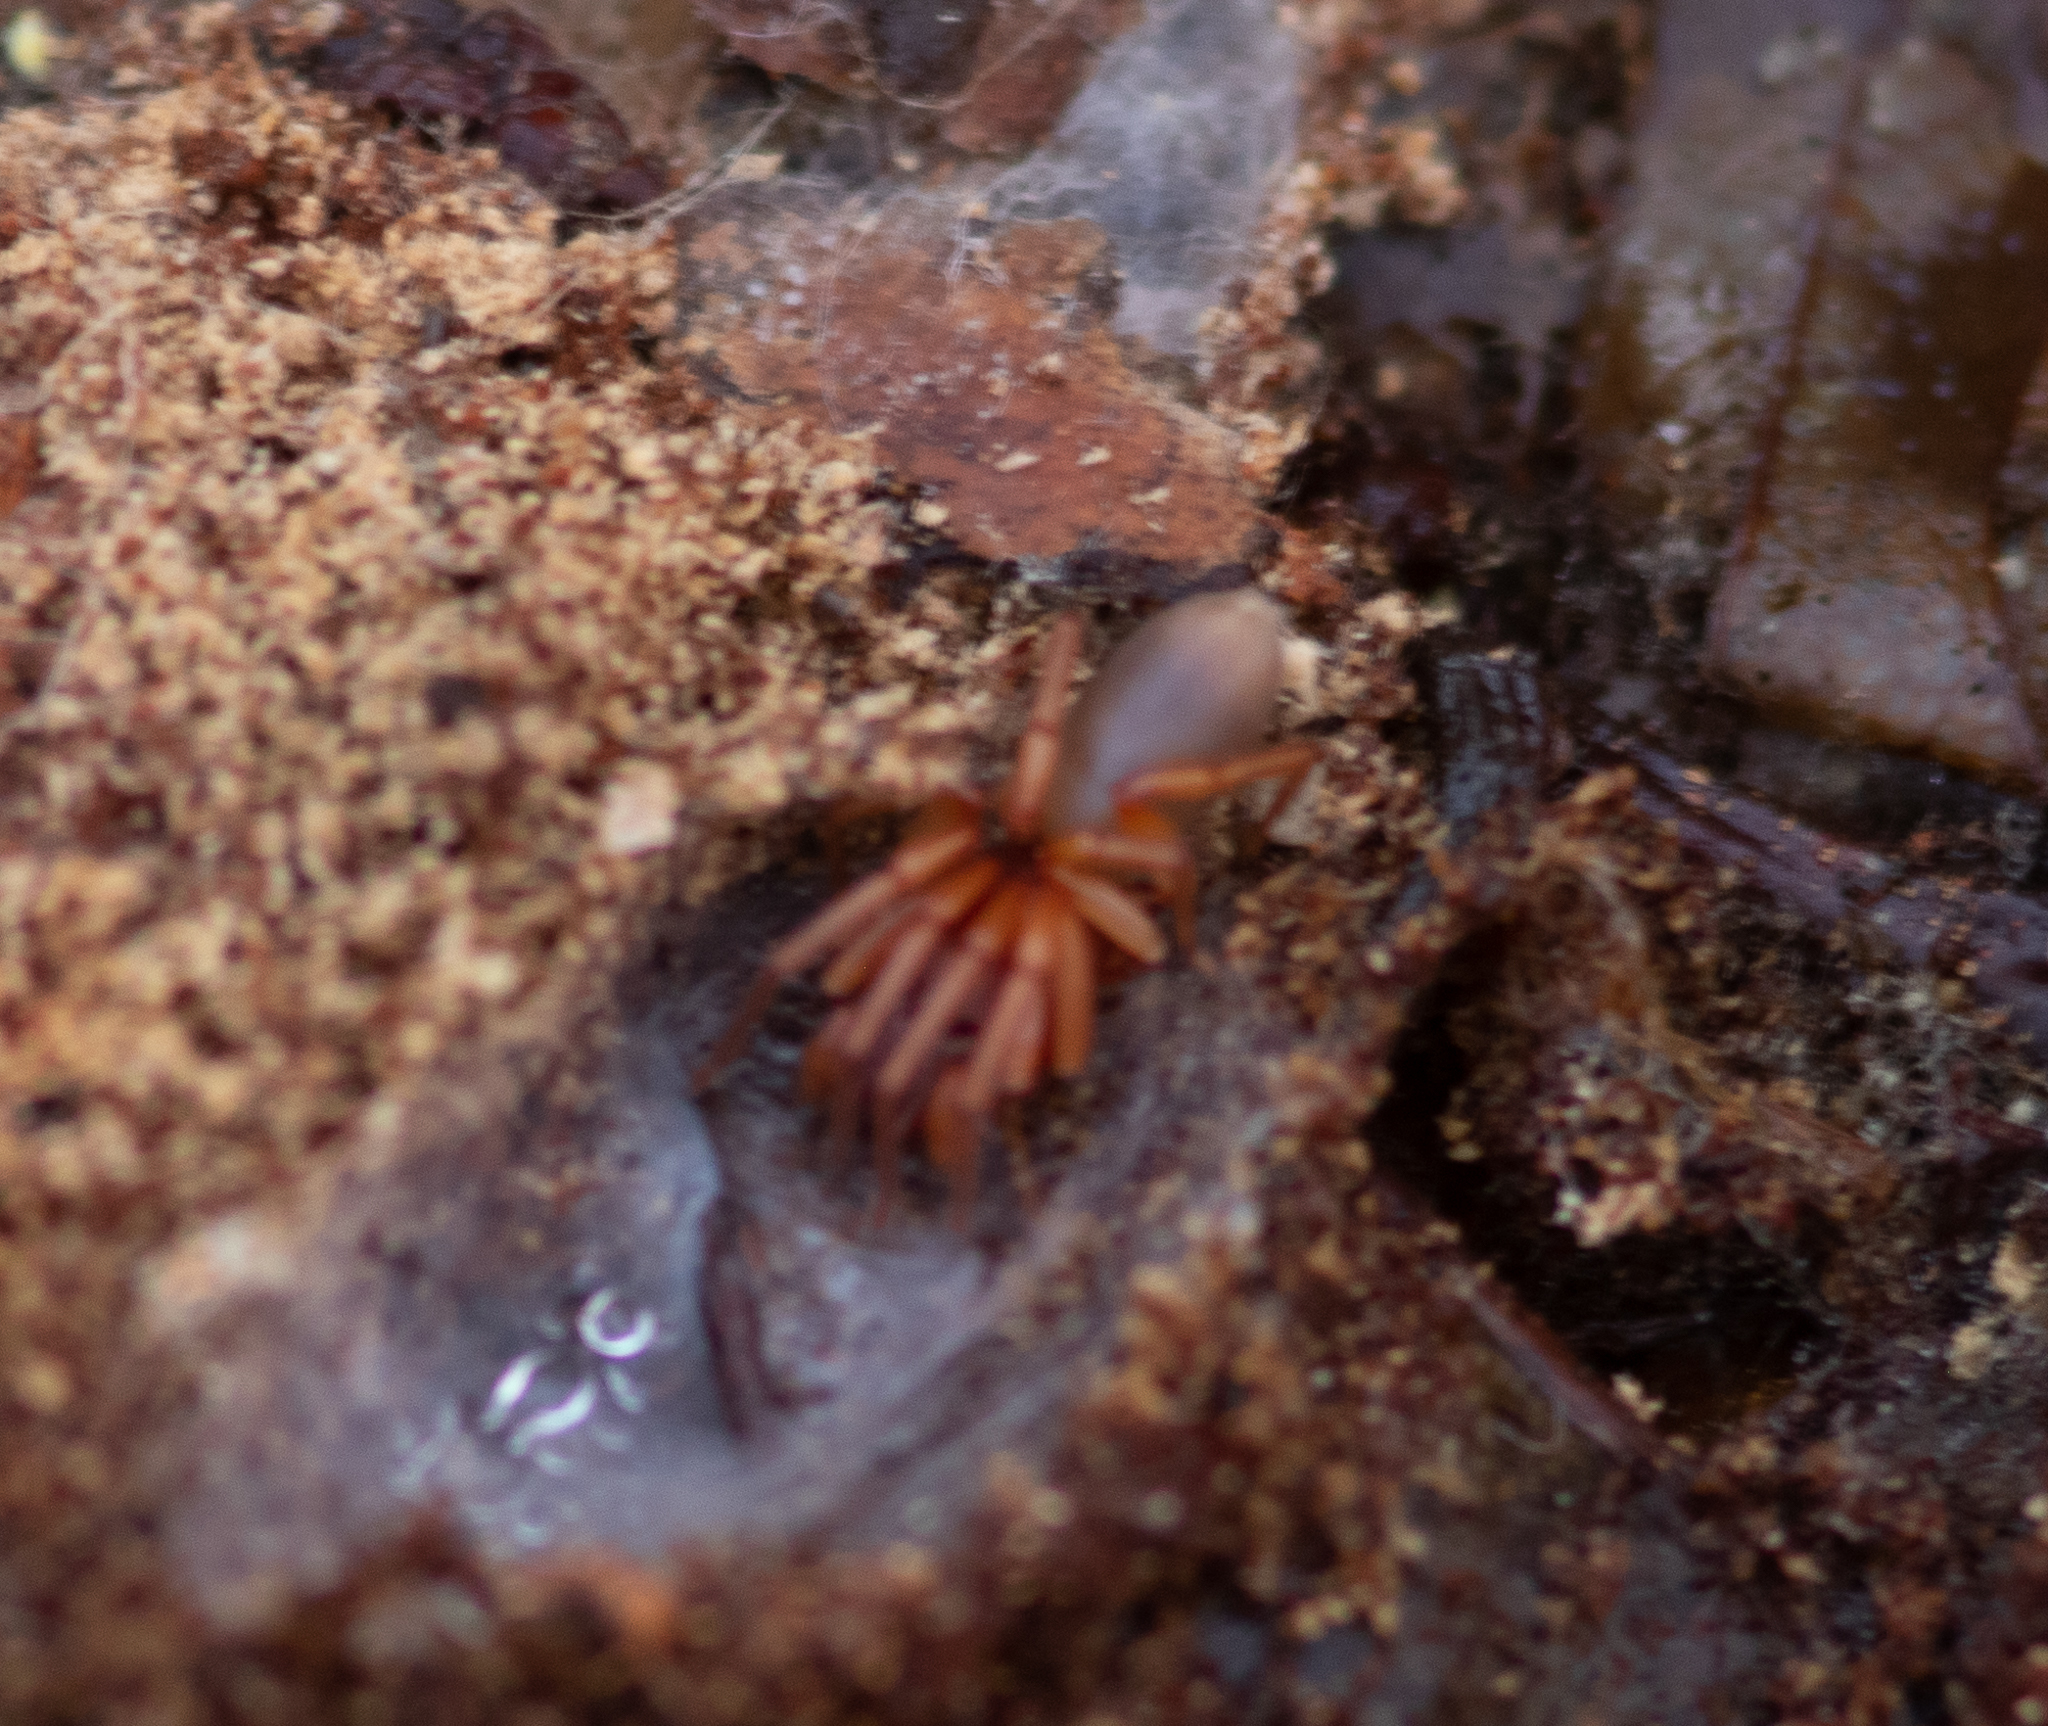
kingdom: Animalia
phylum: Arthropoda
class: Arachnida
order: Araneae
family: Dysderidae
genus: Dysdera
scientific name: Dysdera crocata
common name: Woodlouse spider
